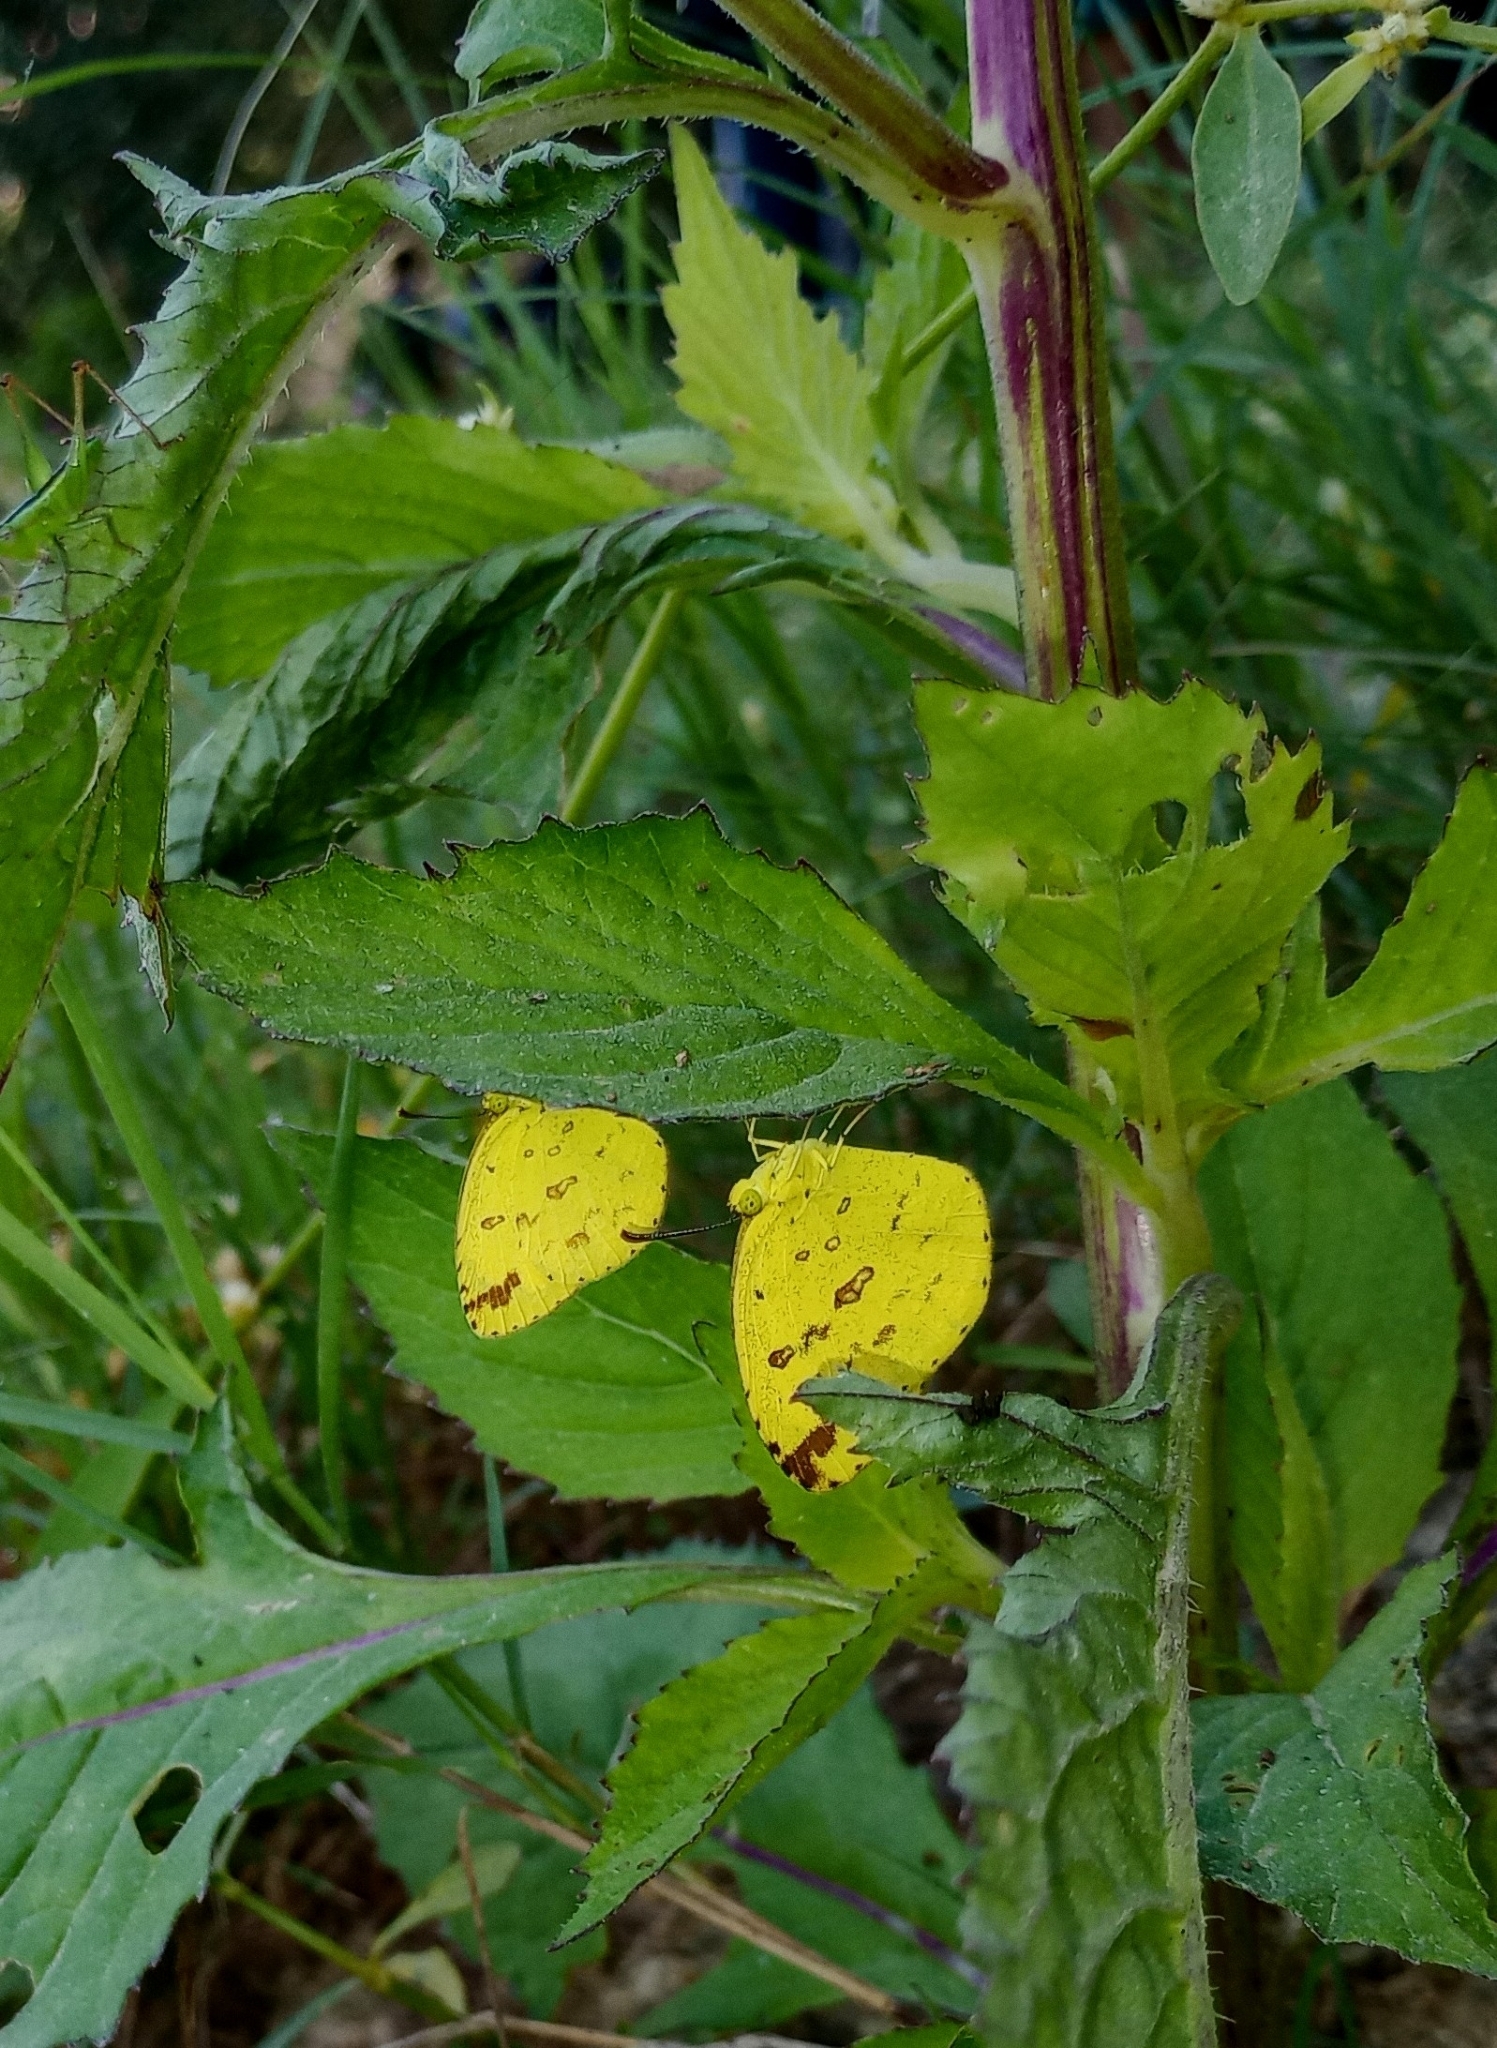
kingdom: Animalia
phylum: Arthropoda
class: Insecta
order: Lepidoptera
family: Pieridae
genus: Eurema
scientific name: Eurema hecabe
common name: Pale grass yellow
